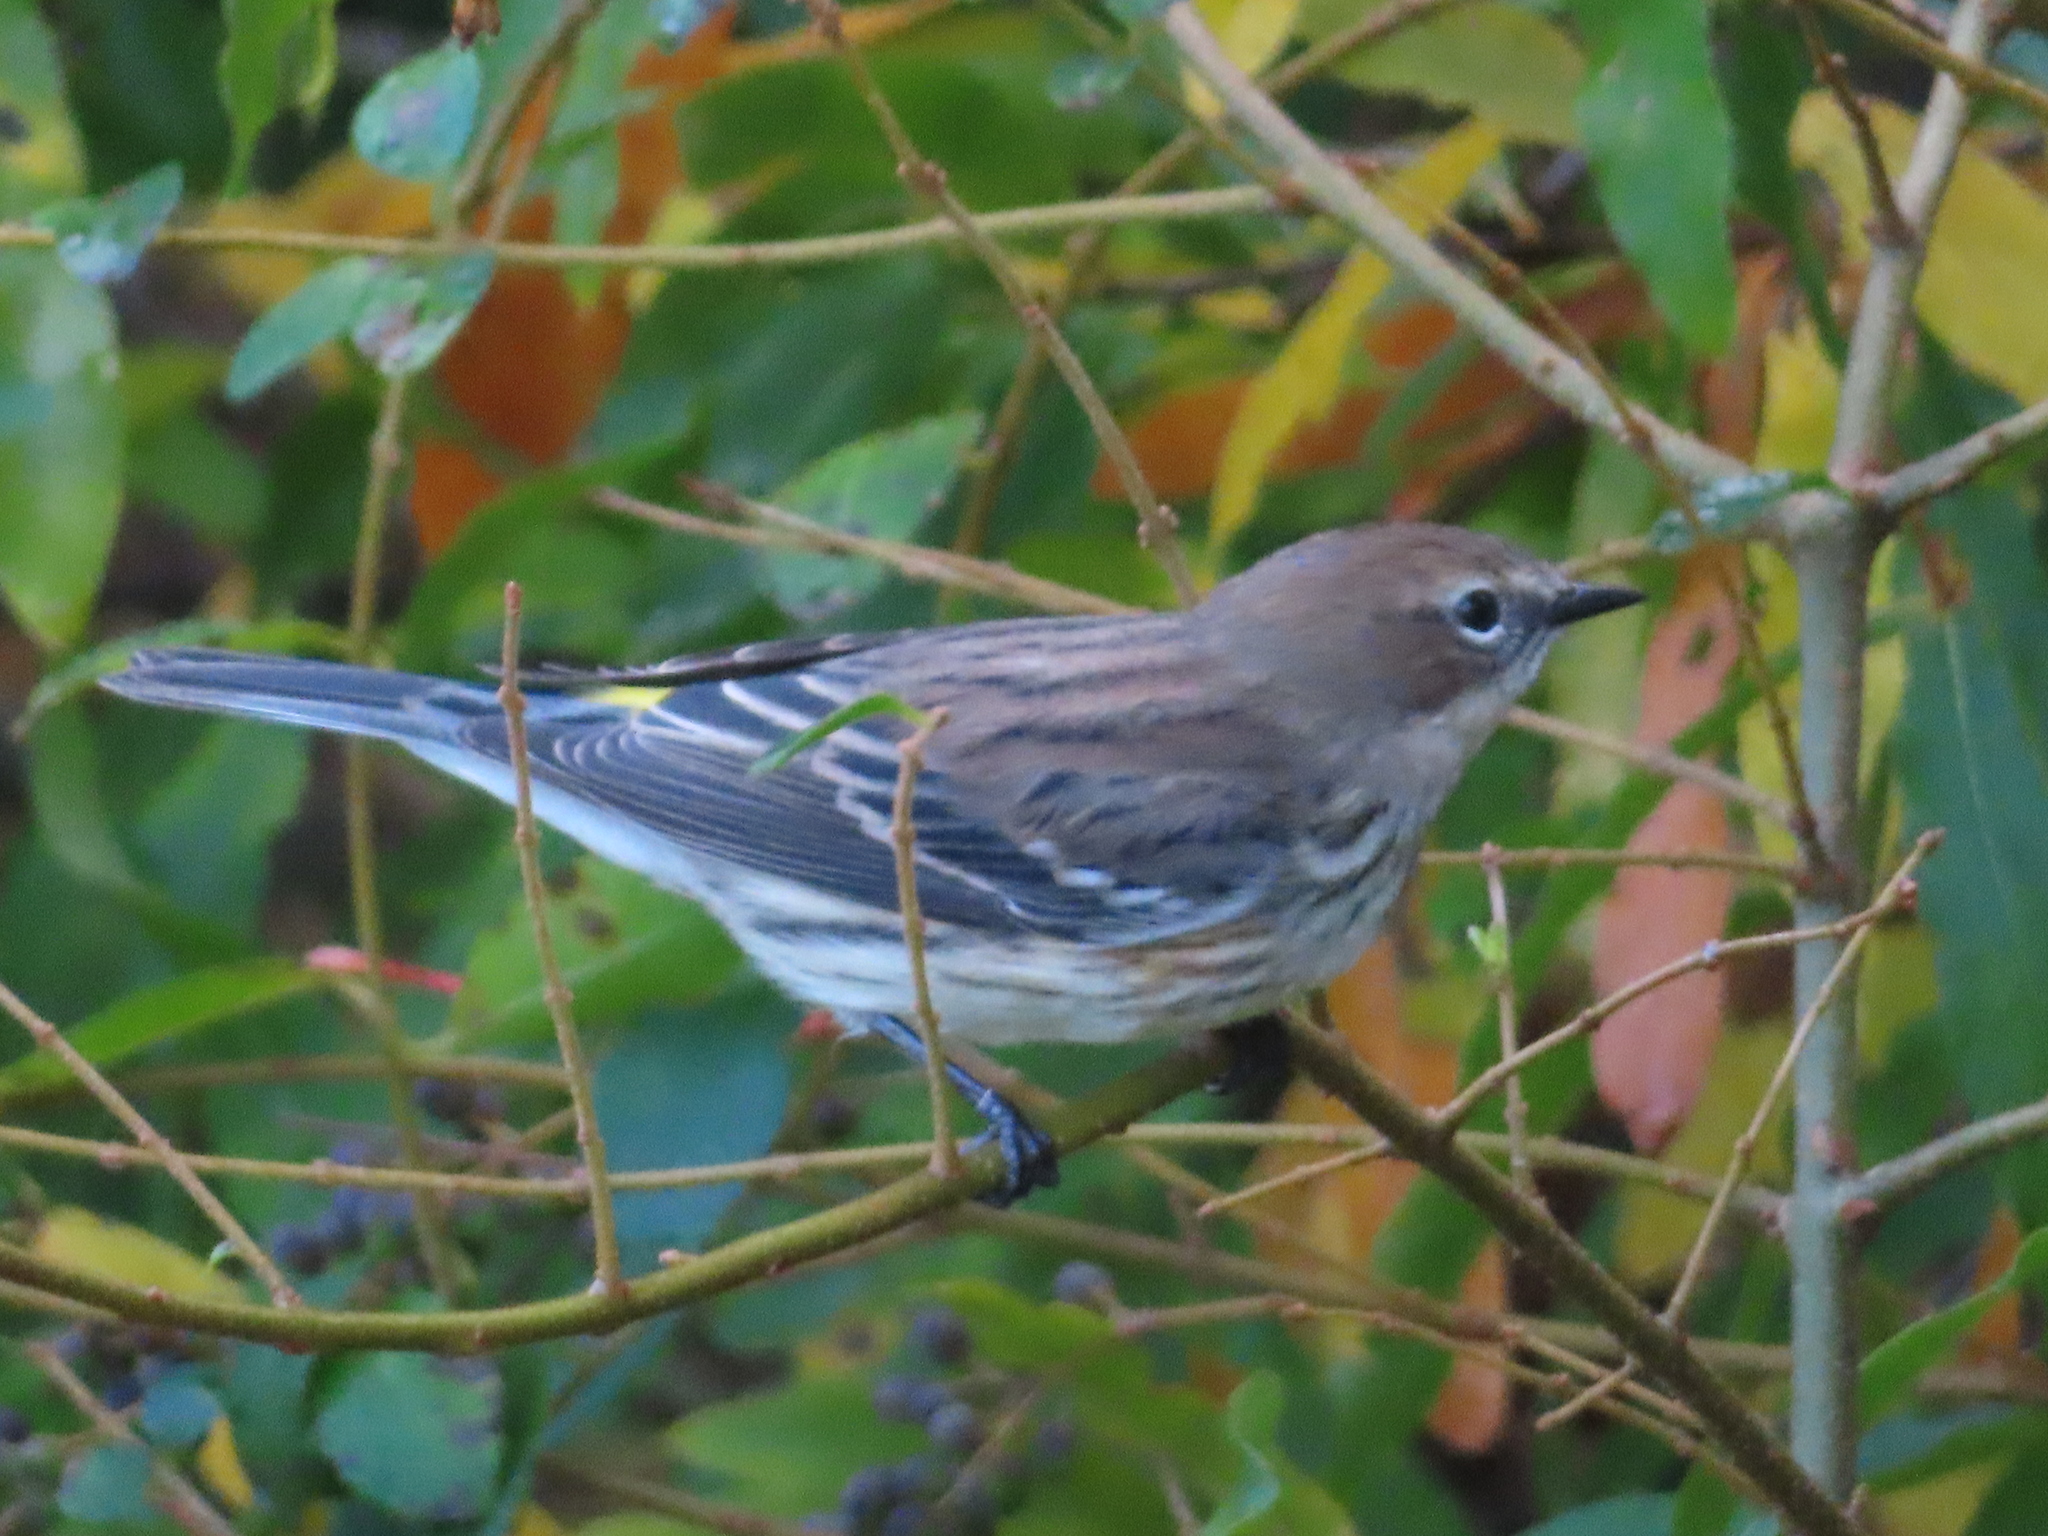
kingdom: Animalia
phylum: Chordata
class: Aves
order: Passeriformes
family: Parulidae
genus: Setophaga
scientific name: Setophaga coronata
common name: Myrtle warbler
